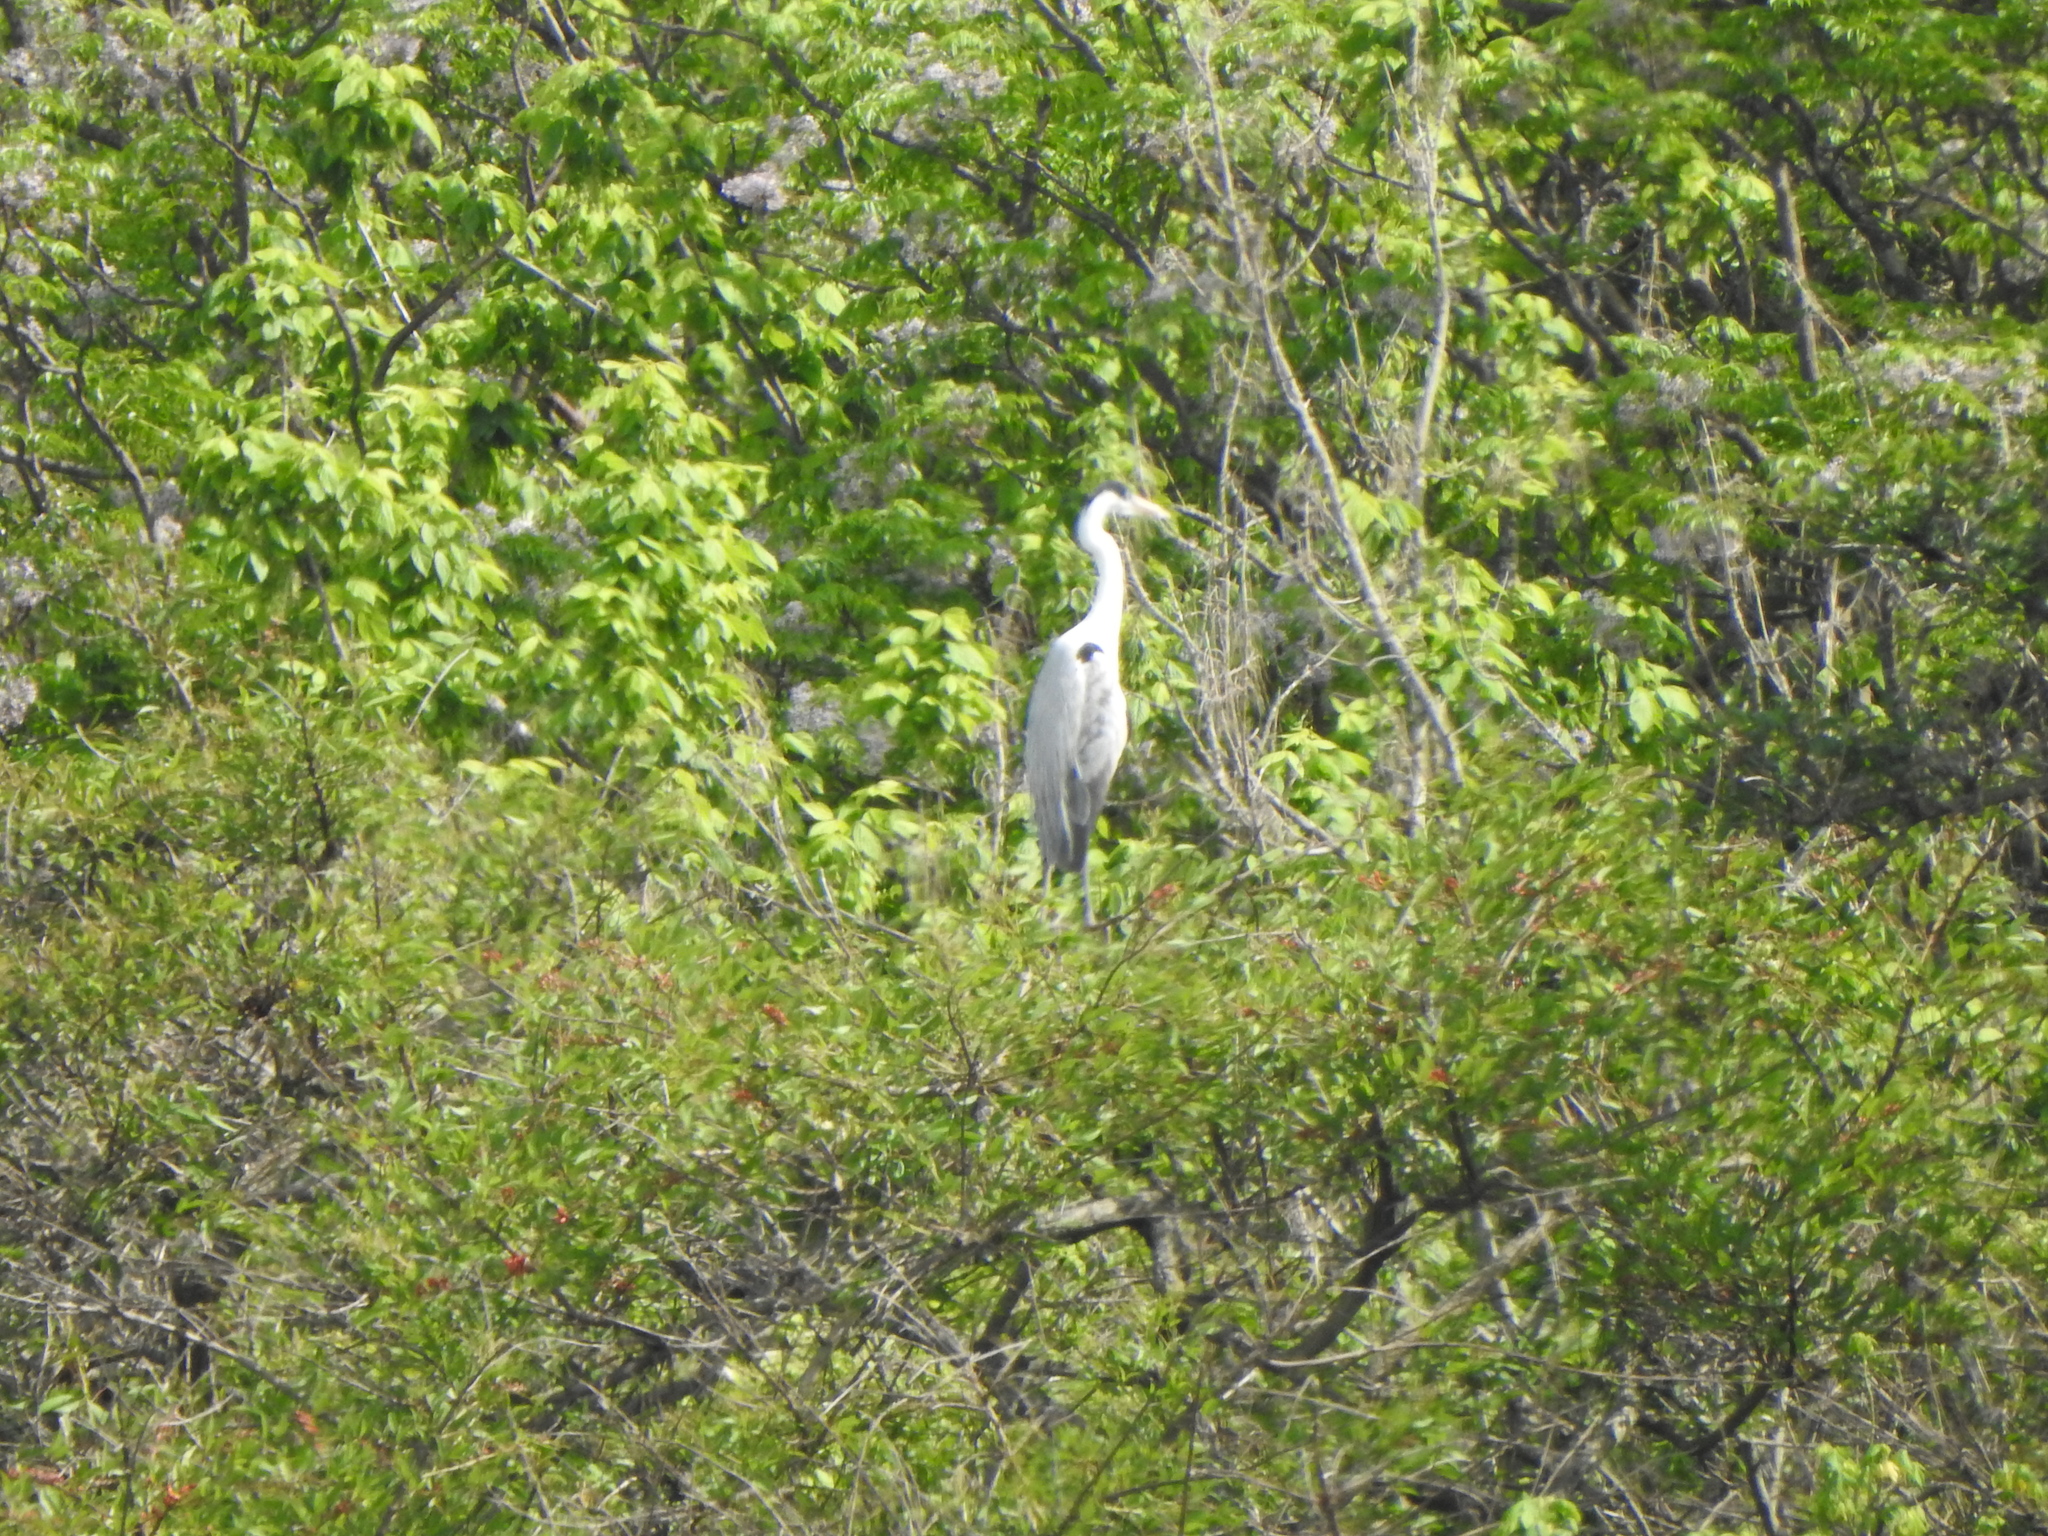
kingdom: Animalia
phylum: Chordata
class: Aves
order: Pelecaniformes
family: Ardeidae
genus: Ardea
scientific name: Ardea cocoi
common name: Cocoi heron
